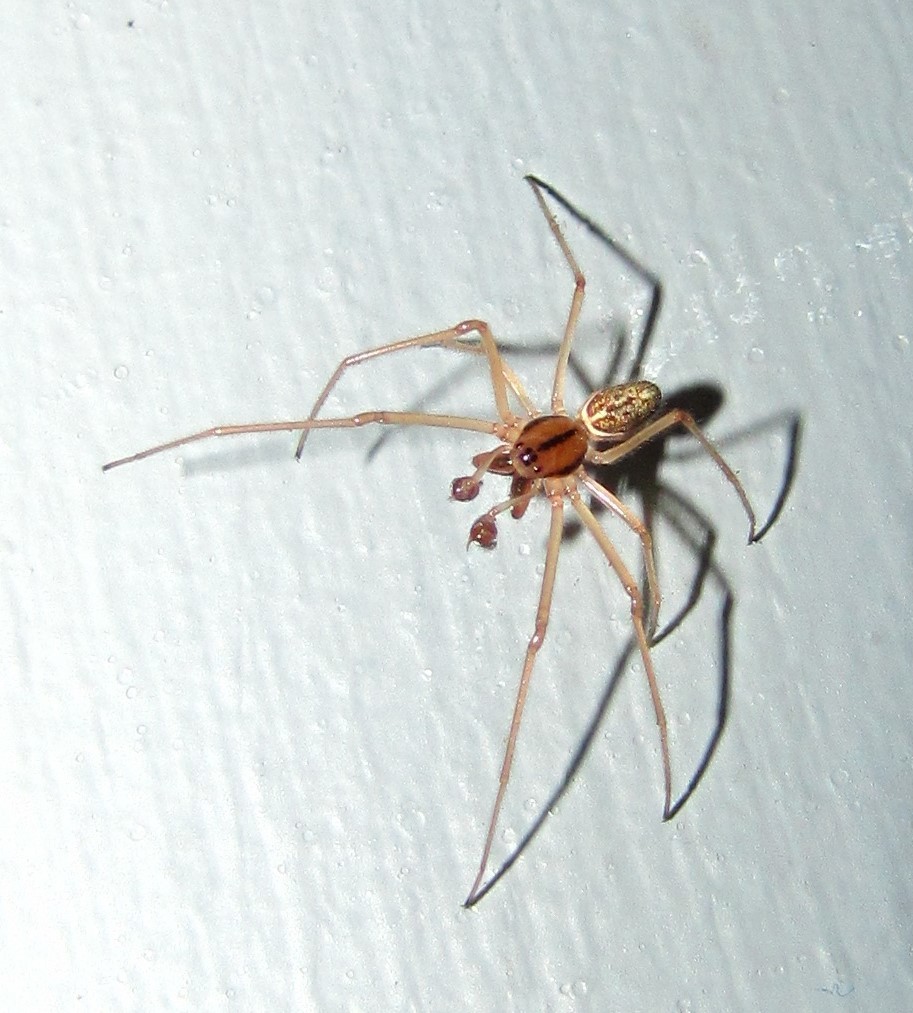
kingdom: Animalia
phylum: Arthropoda
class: Arachnida
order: Araneae
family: Tetragnathidae
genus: Pachygnatha
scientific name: Pachygnatha tristriata
